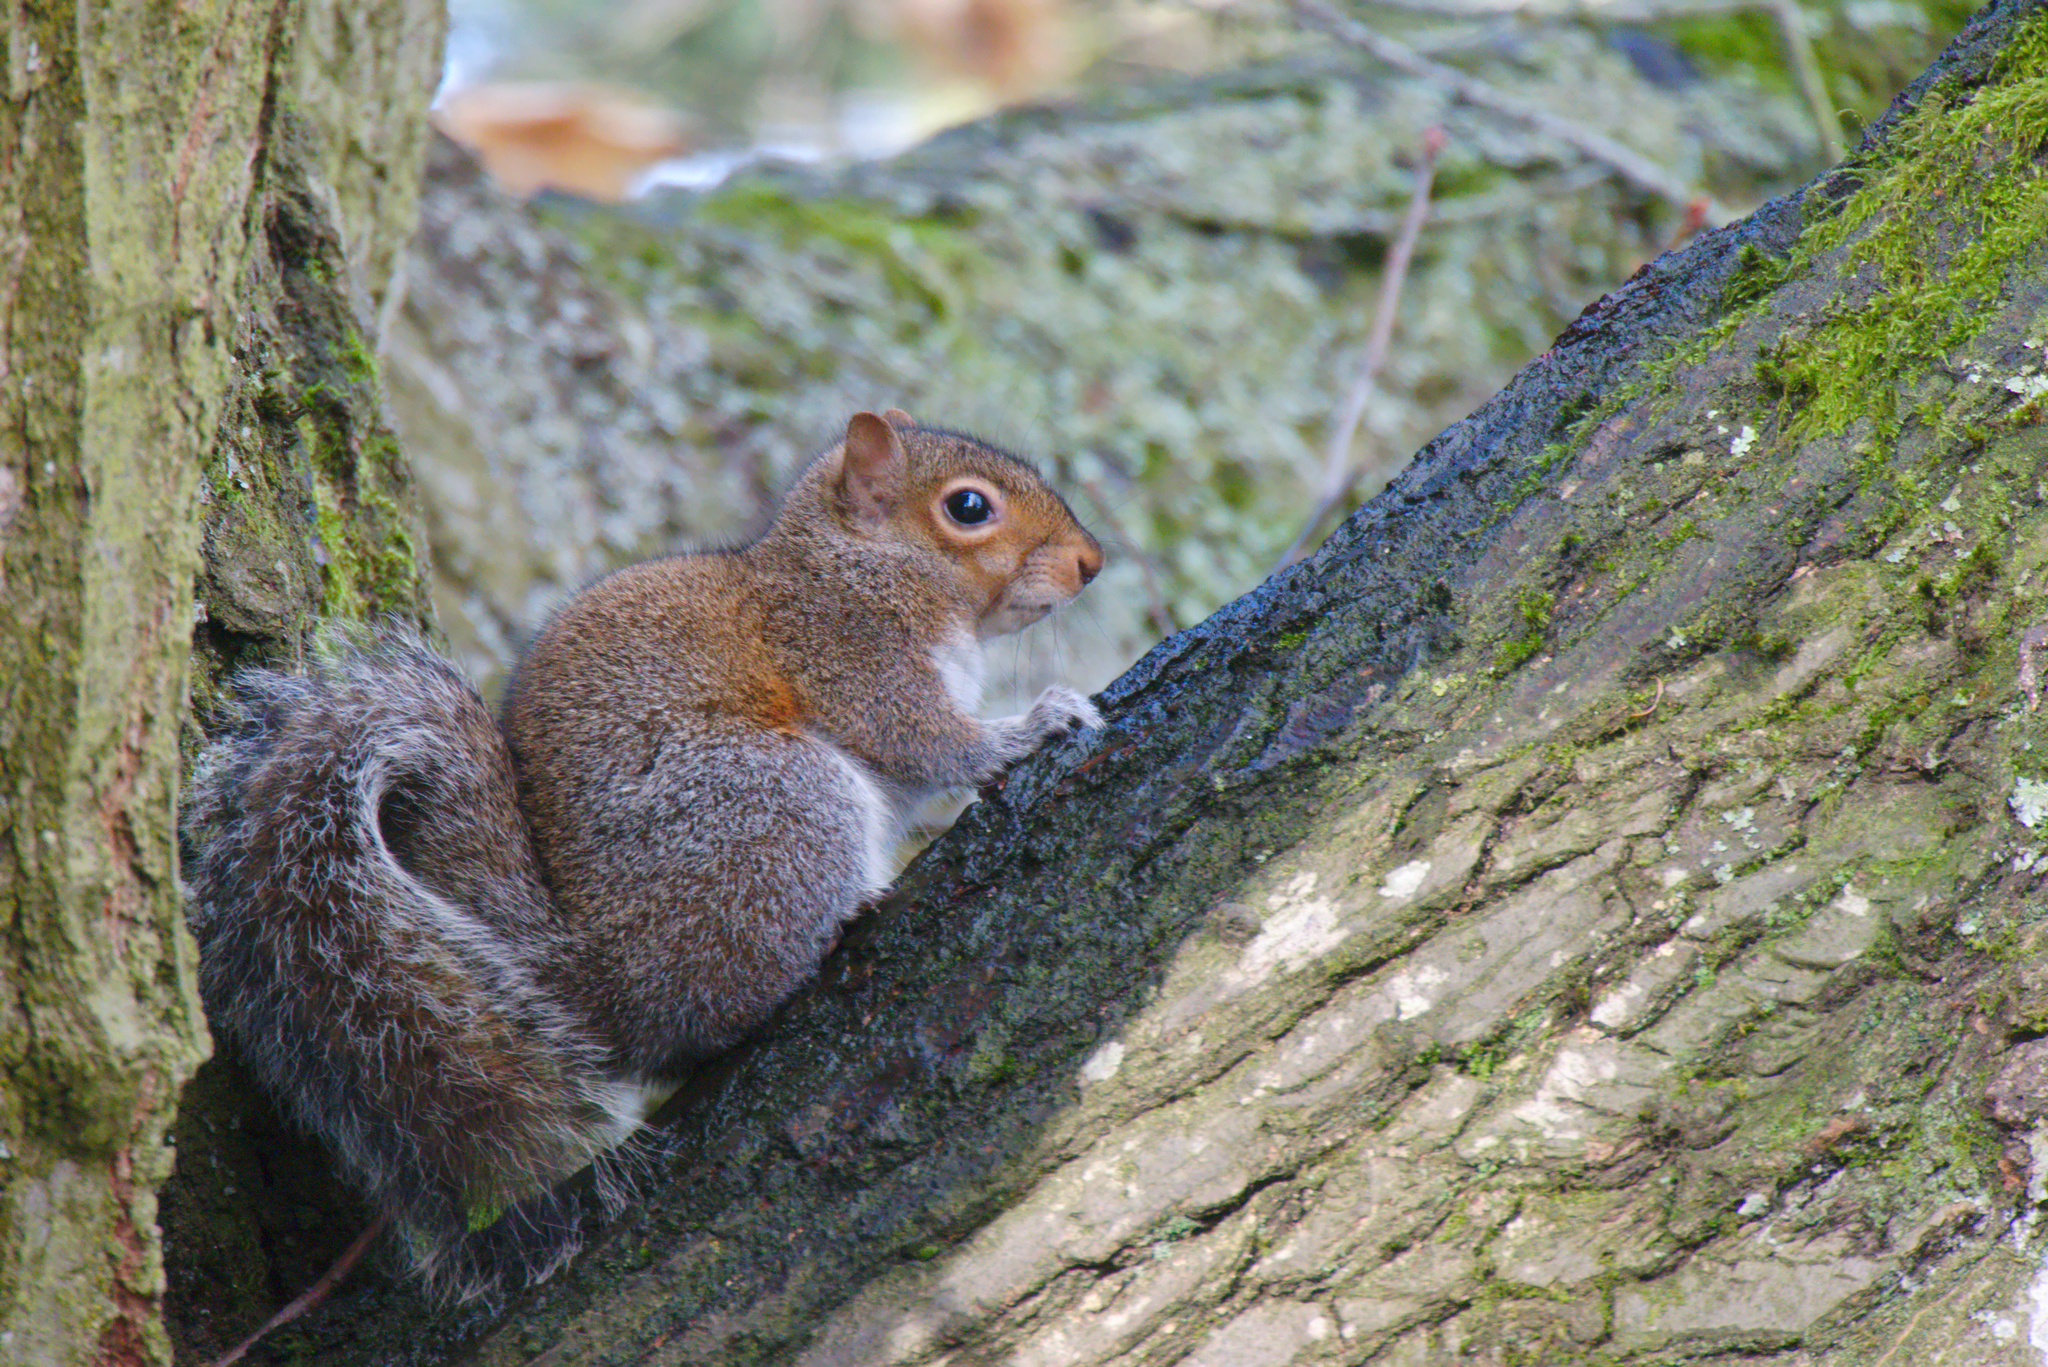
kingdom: Animalia
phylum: Chordata
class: Mammalia
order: Rodentia
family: Sciuridae
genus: Sciurus
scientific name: Sciurus carolinensis
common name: Eastern gray squirrel
